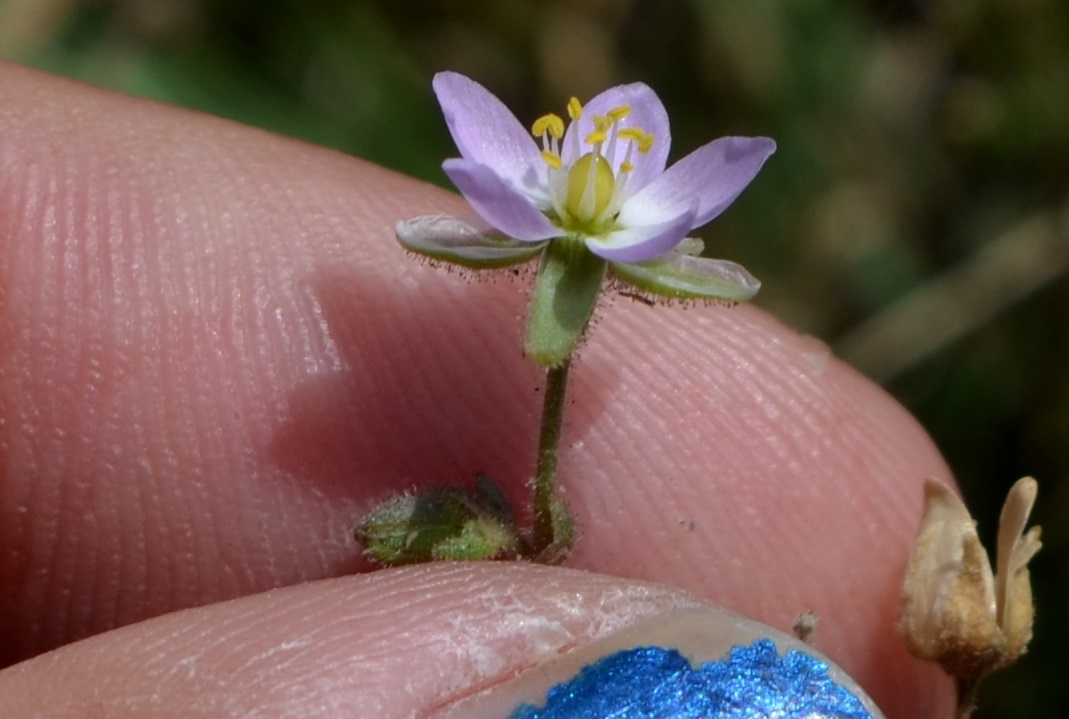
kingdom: Plantae
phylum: Tracheophyta
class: Magnoliopsida
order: Caryophyllales
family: Caryophyllaceae
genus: Spergularia
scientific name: Spergularia media
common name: Greater sea-spurrey
